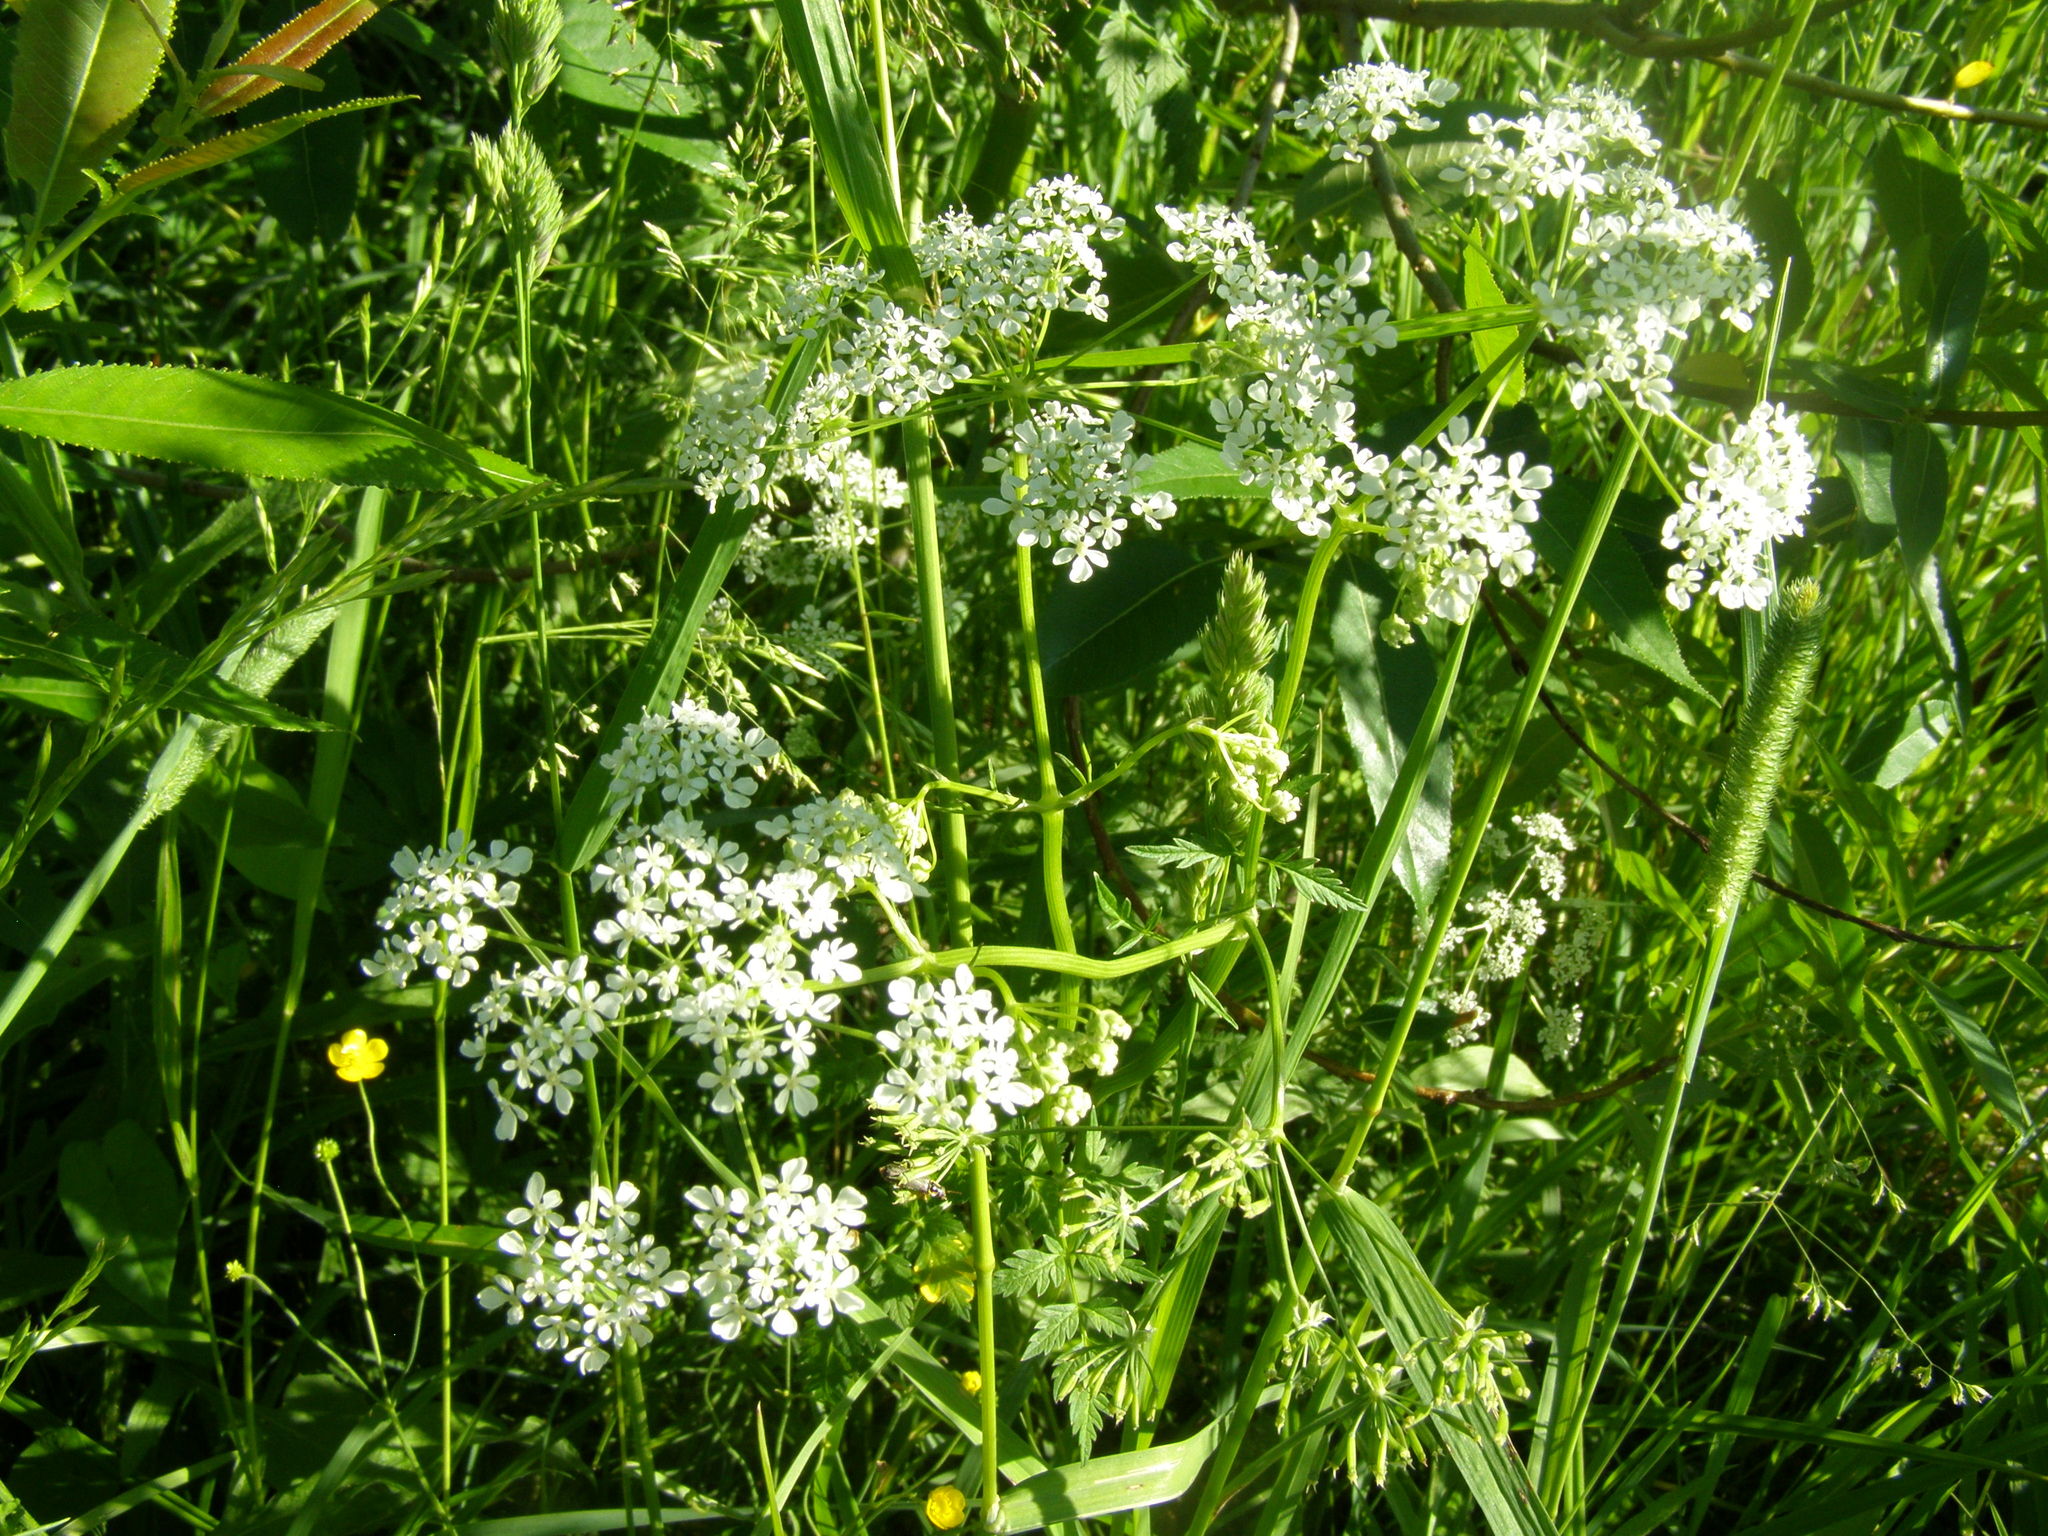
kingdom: Plantae
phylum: Tracheophyta
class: Magnoliopsida
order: Apiales
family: Apiaceae
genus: Anthriscus
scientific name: Anthriscus sylvestris
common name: Cow parsley
